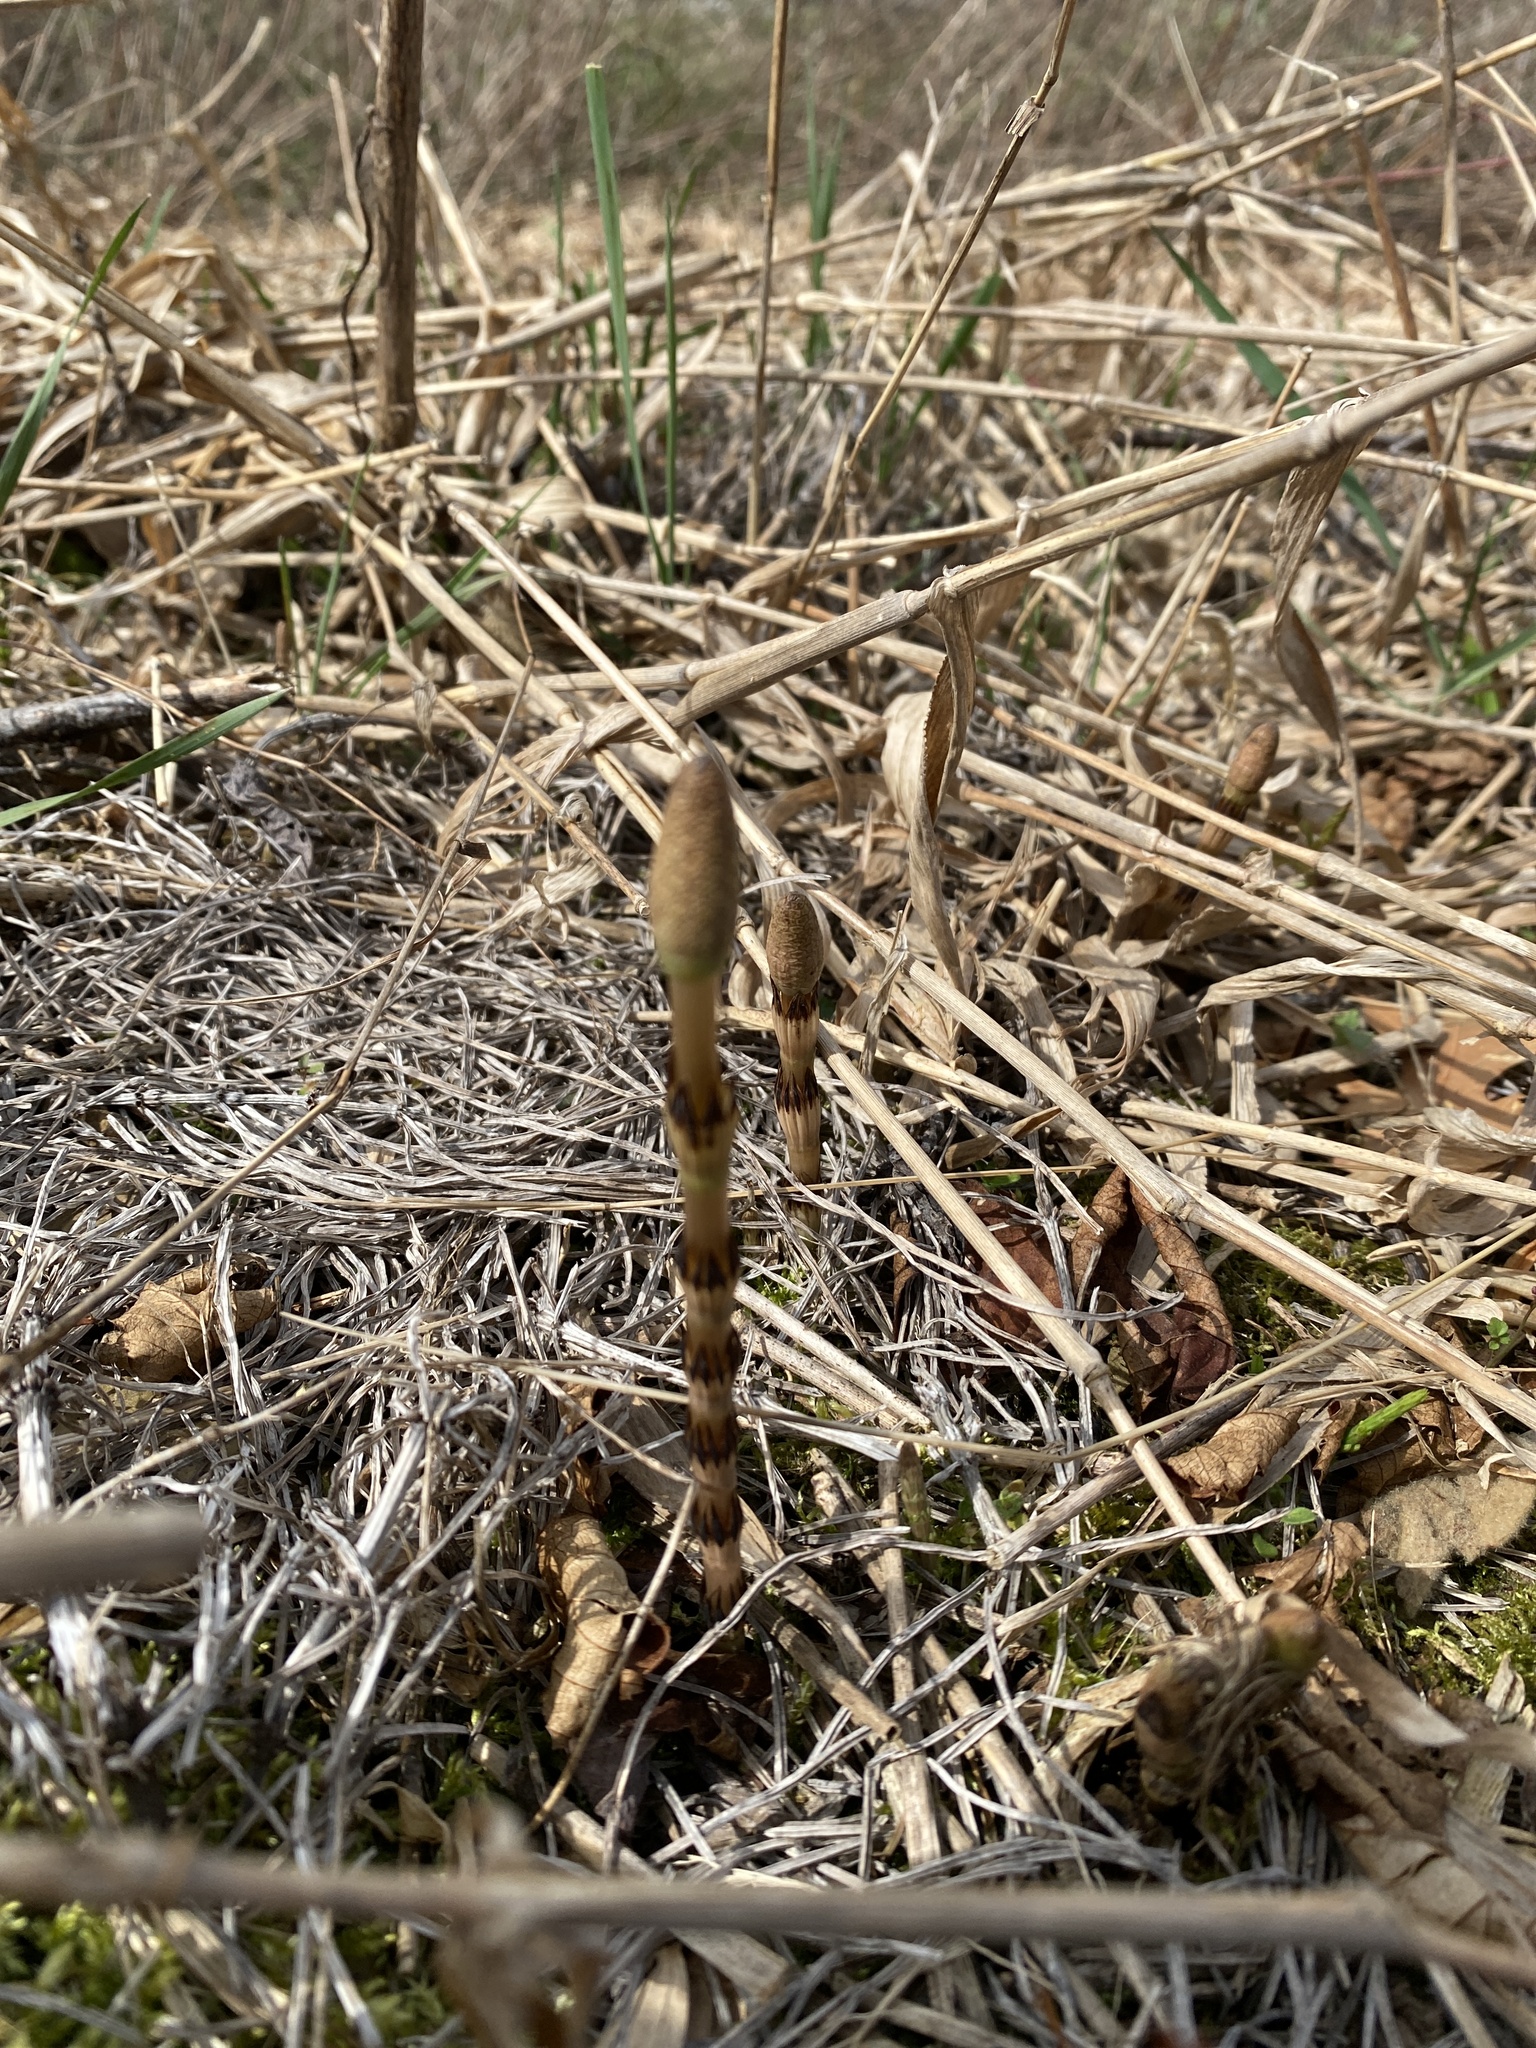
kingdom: Plantae
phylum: Tracheophyta
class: Polypodiopsida
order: Equisetales
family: Equisetaceae
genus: Equisetum
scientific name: Equisetum arvense
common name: Field horsetail
